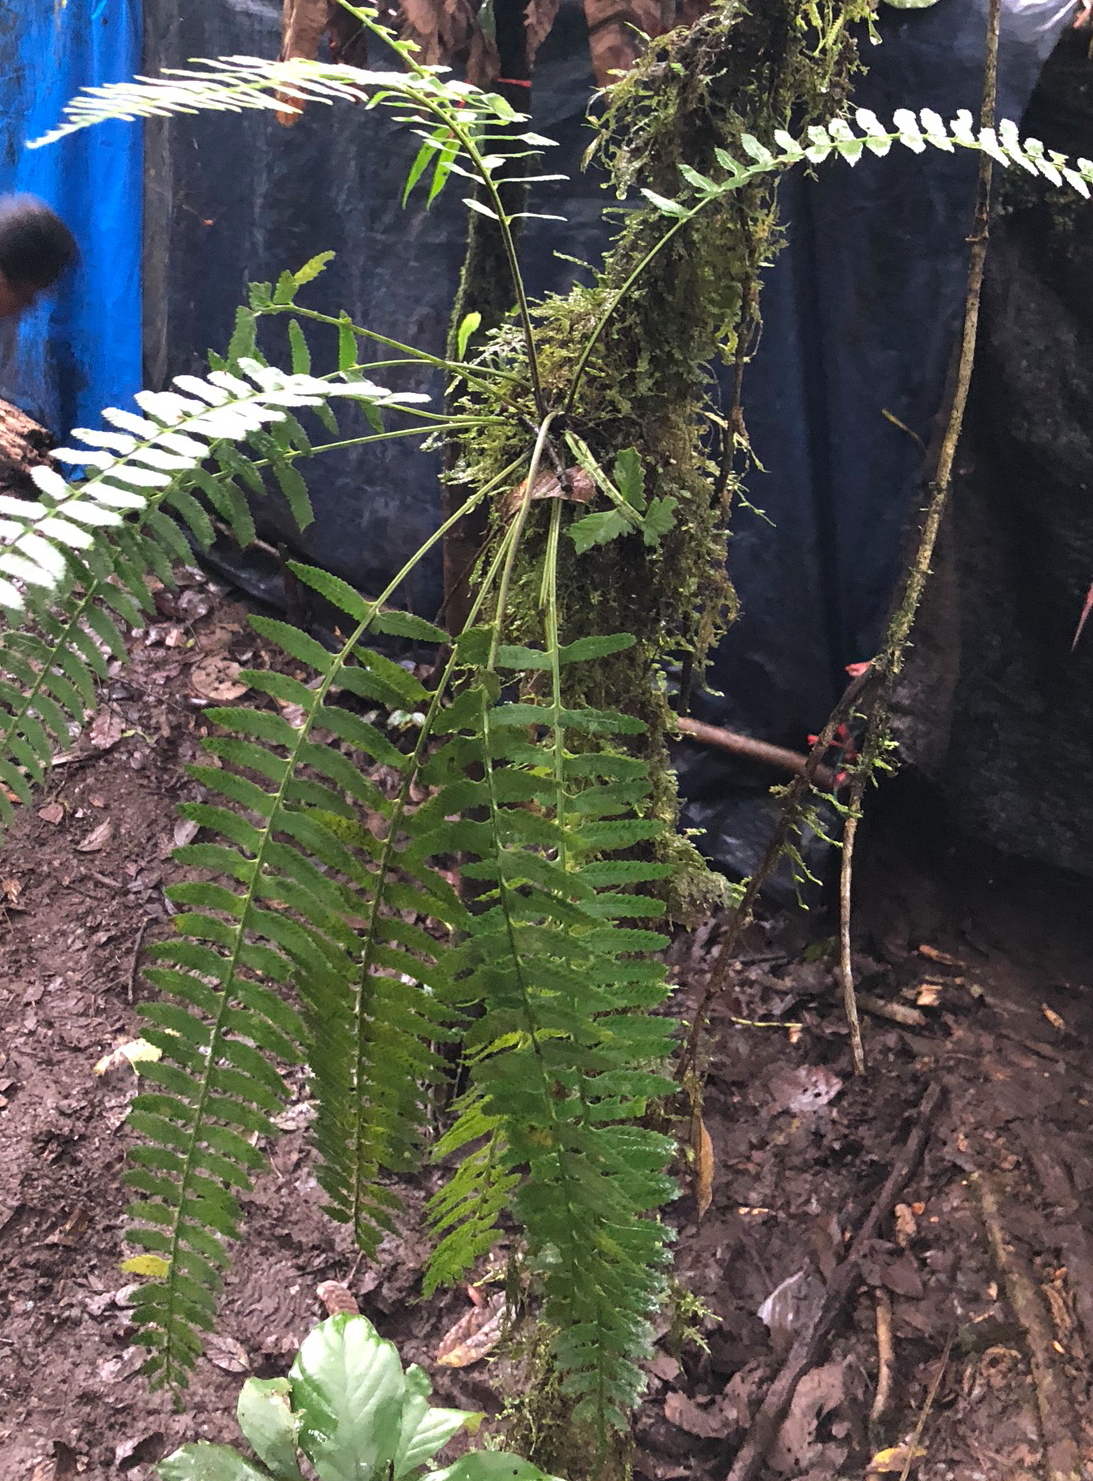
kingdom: Plantae
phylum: Tracheophyta
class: Polypodiopsida
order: Polypodiales
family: Aspleniaceae
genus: Asplenium
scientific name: Asplenium tenerum
